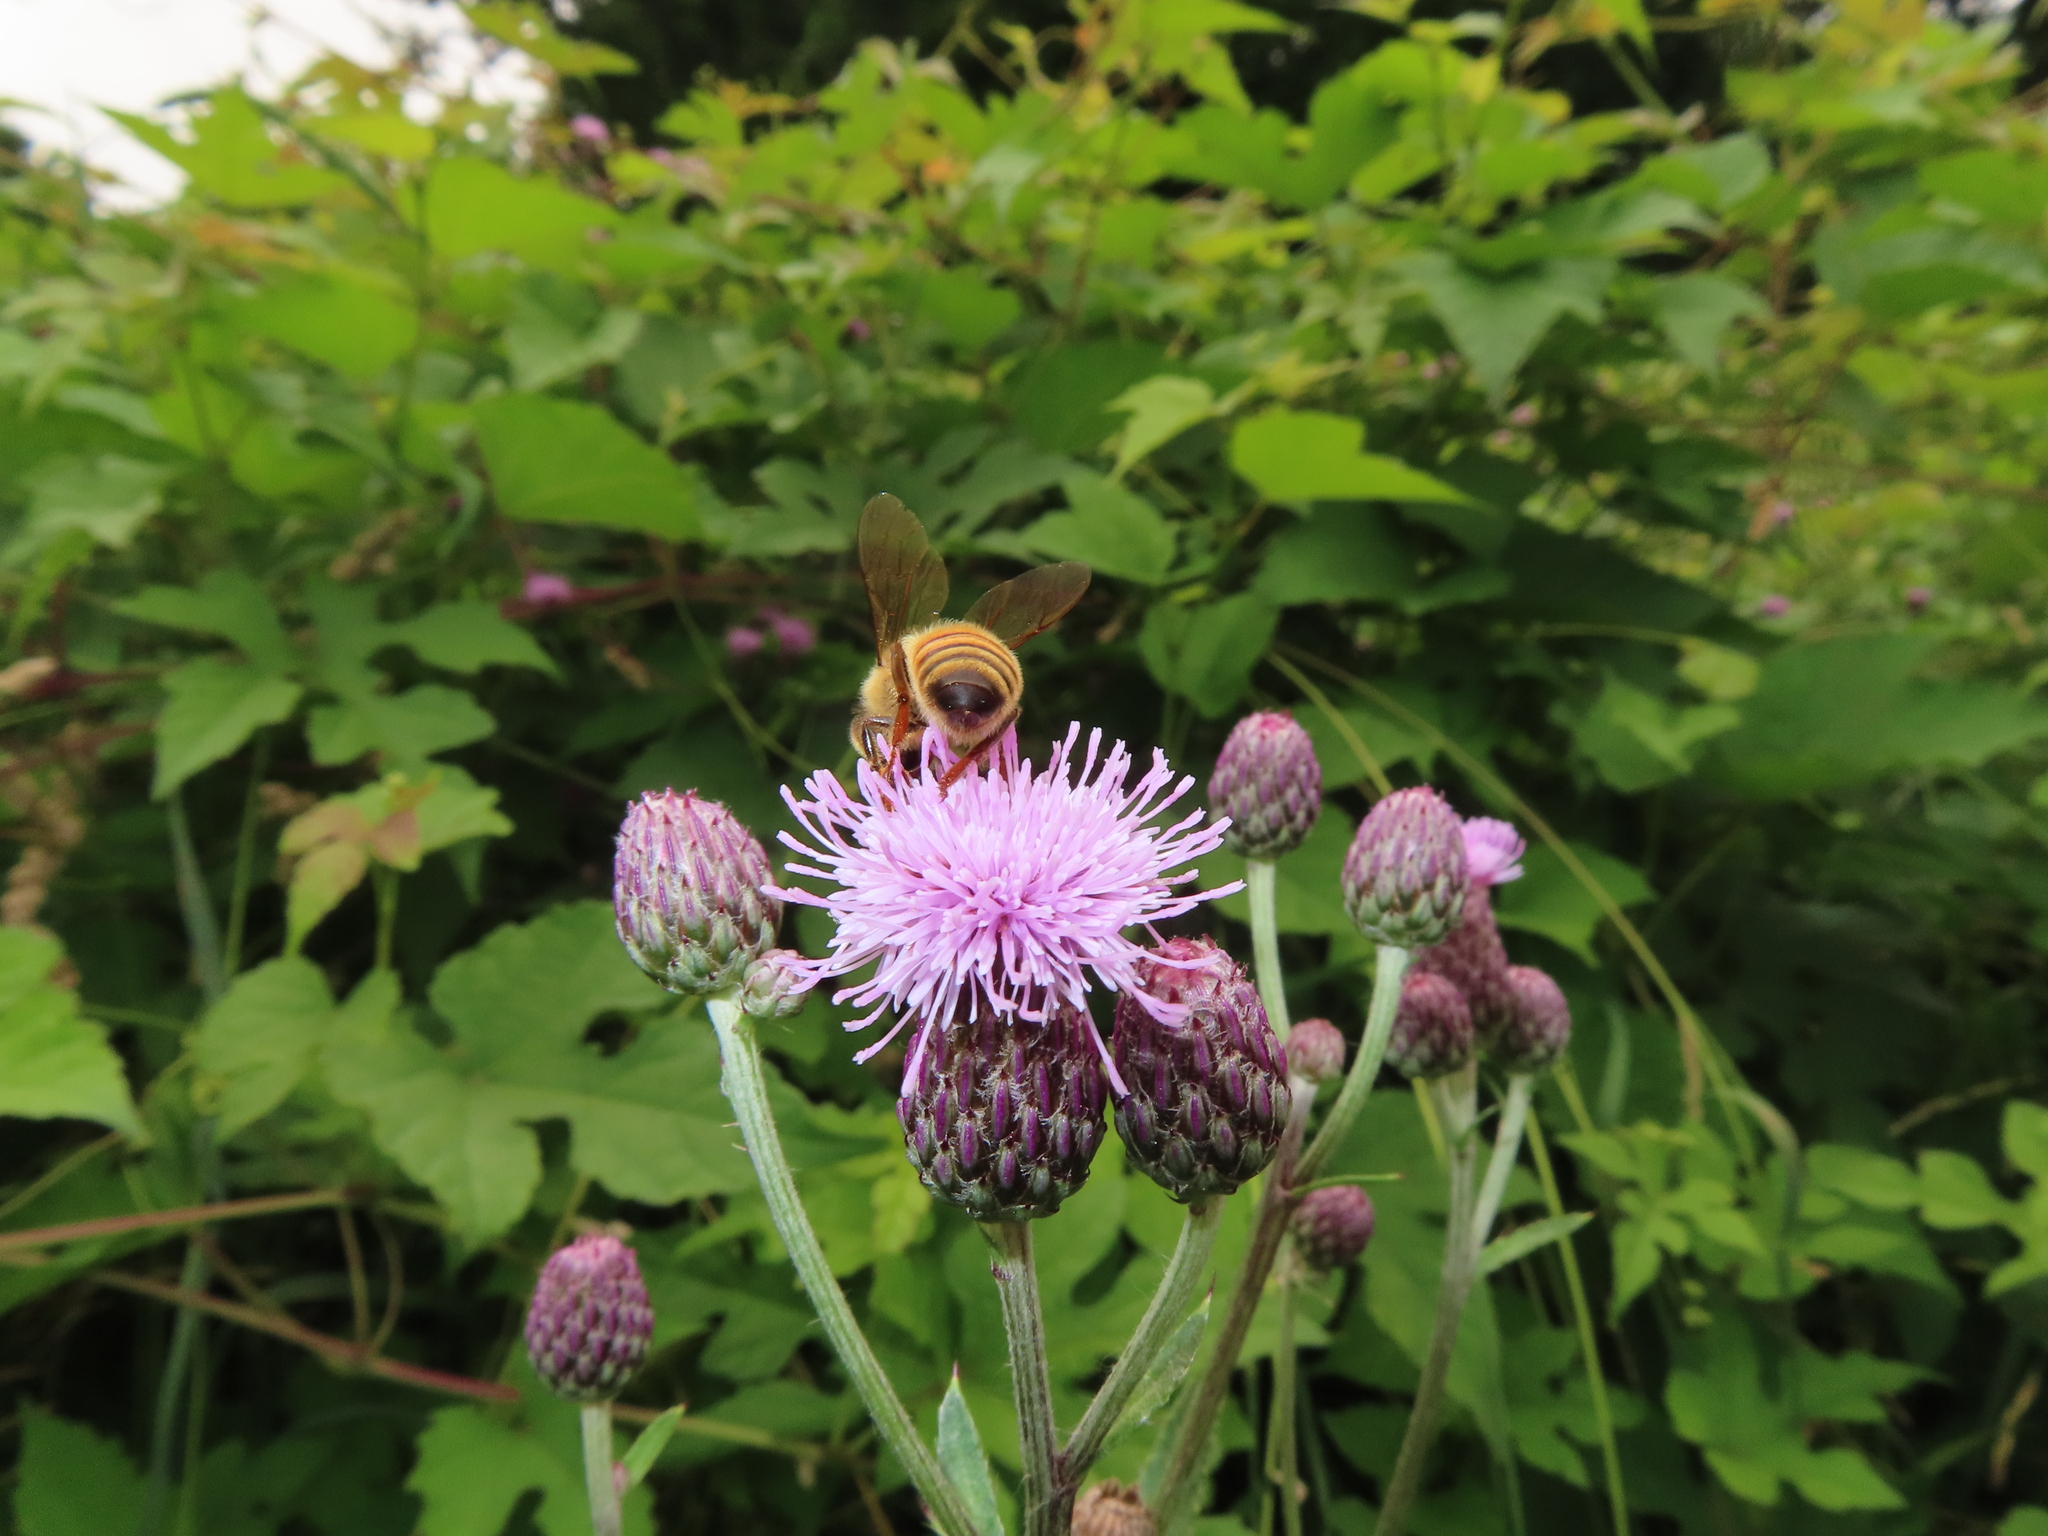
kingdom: Animalia
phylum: Arthropoda
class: Insecta
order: Hymenoptera
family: Apidae
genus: Apis
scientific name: Apis mellifera
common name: Honey bee
